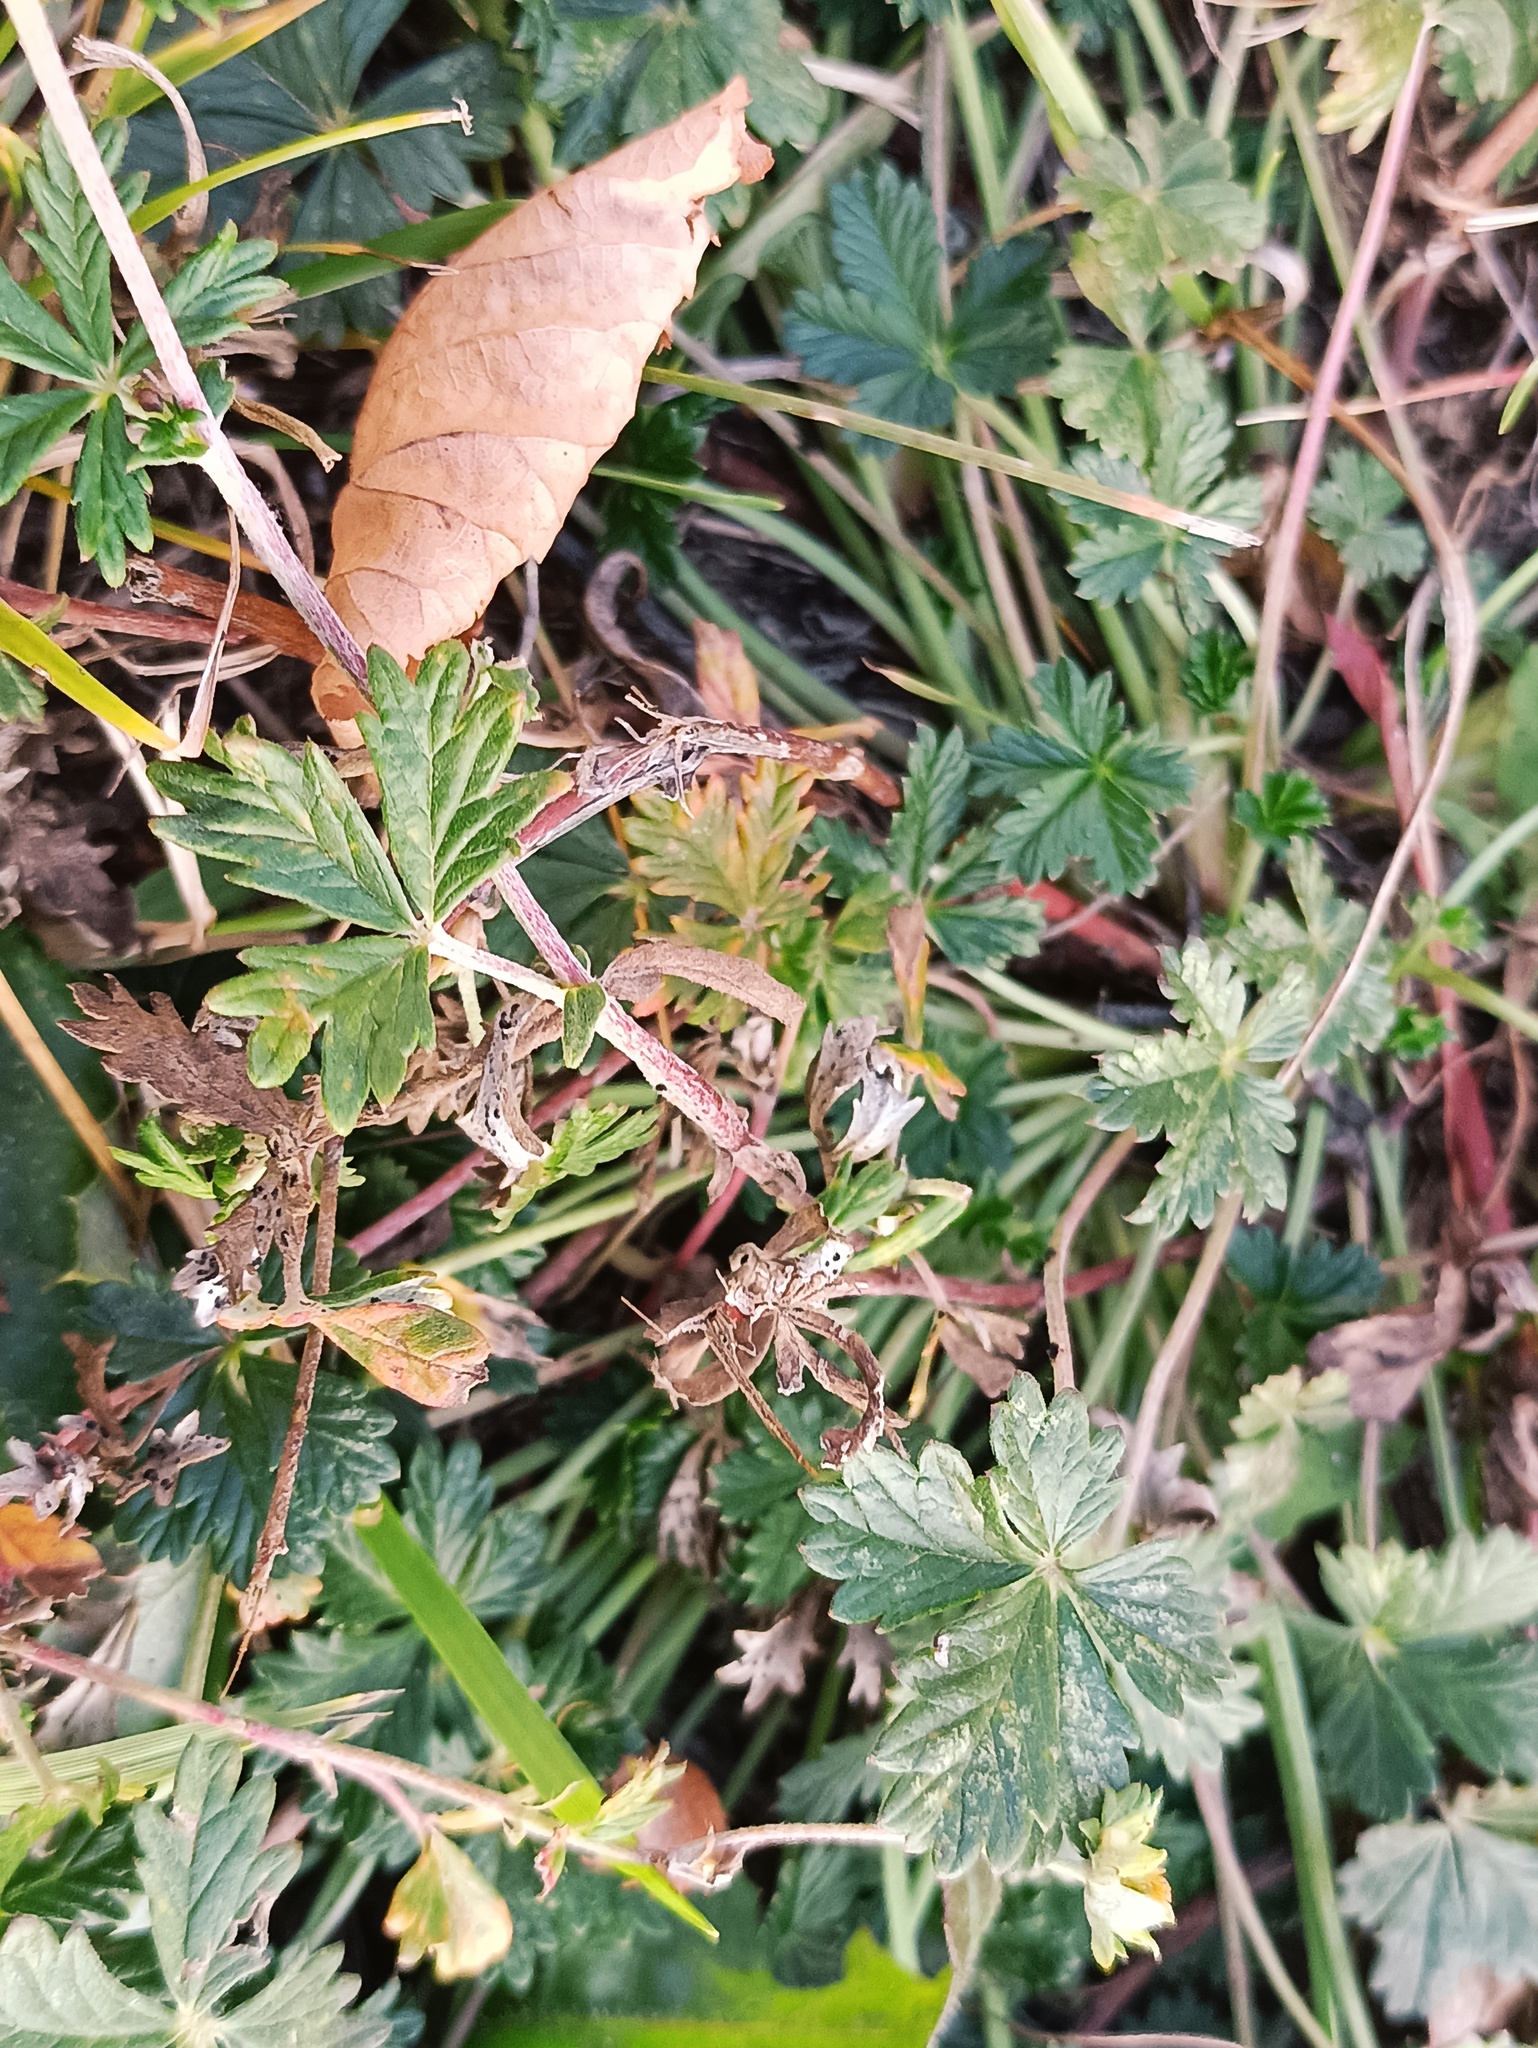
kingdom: Plantae
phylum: Tracheophyta
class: Magnoliopsida
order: Rosales
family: Rosaceae
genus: Potentilla
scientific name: Potentilla argentea
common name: Hoary cinquefoil
